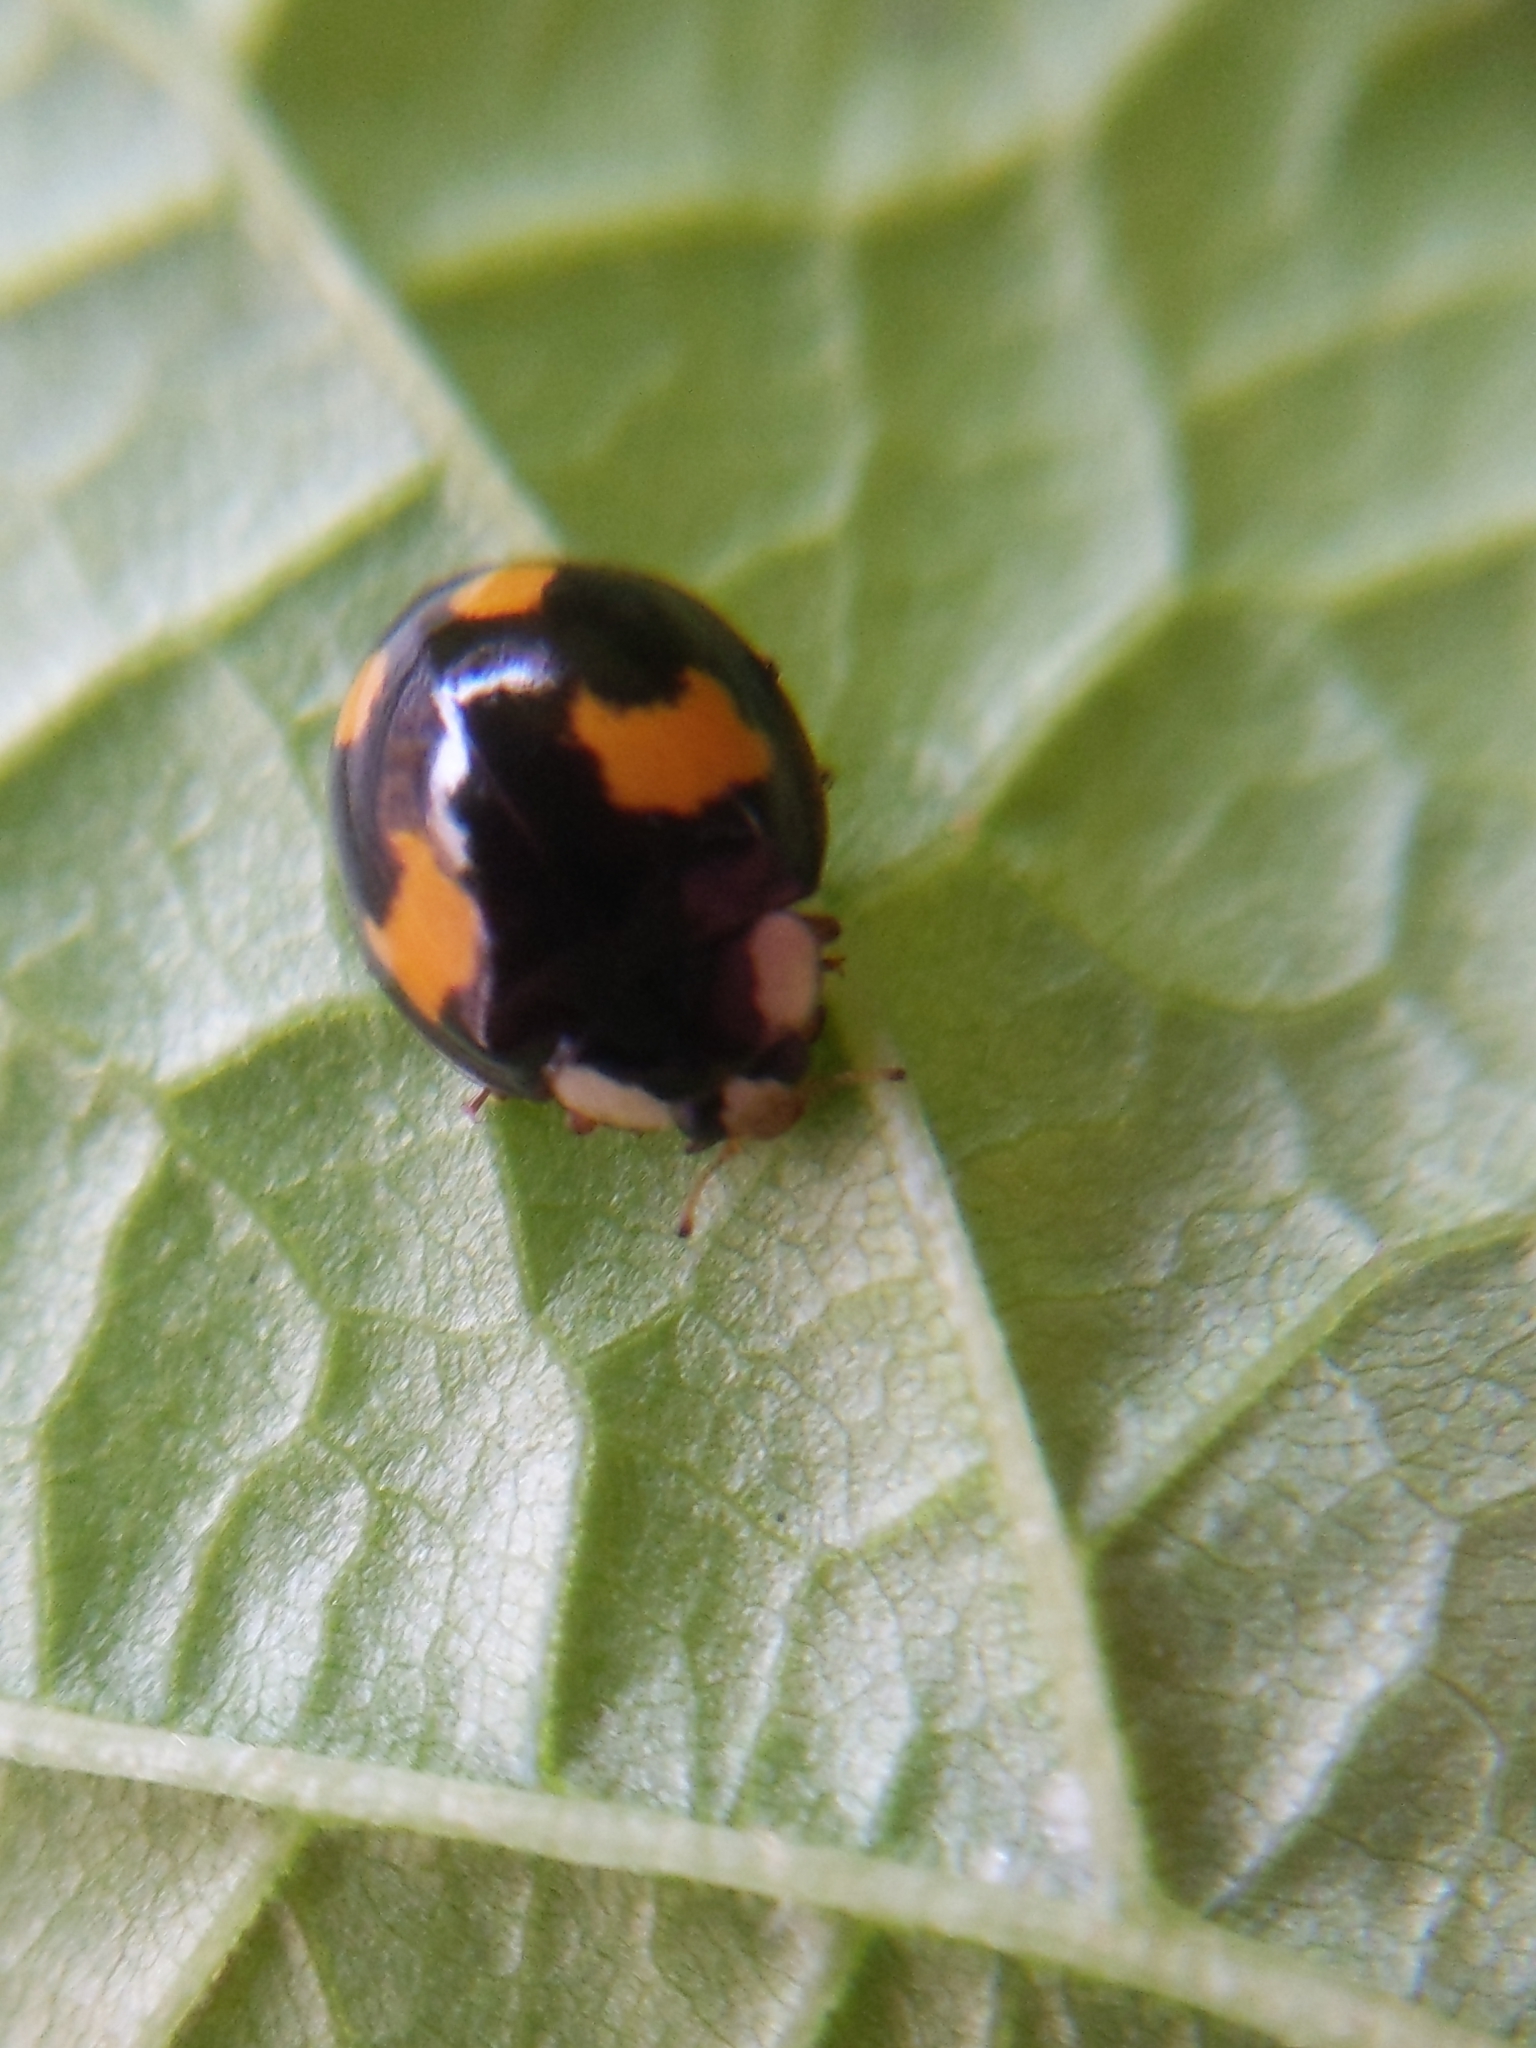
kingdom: Animalia
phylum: Arthropoda
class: Insecta
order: Coleoptera
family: Coccinellidae
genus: Harmonia
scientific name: Harmonia axyridis
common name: Harlequin ladybird
